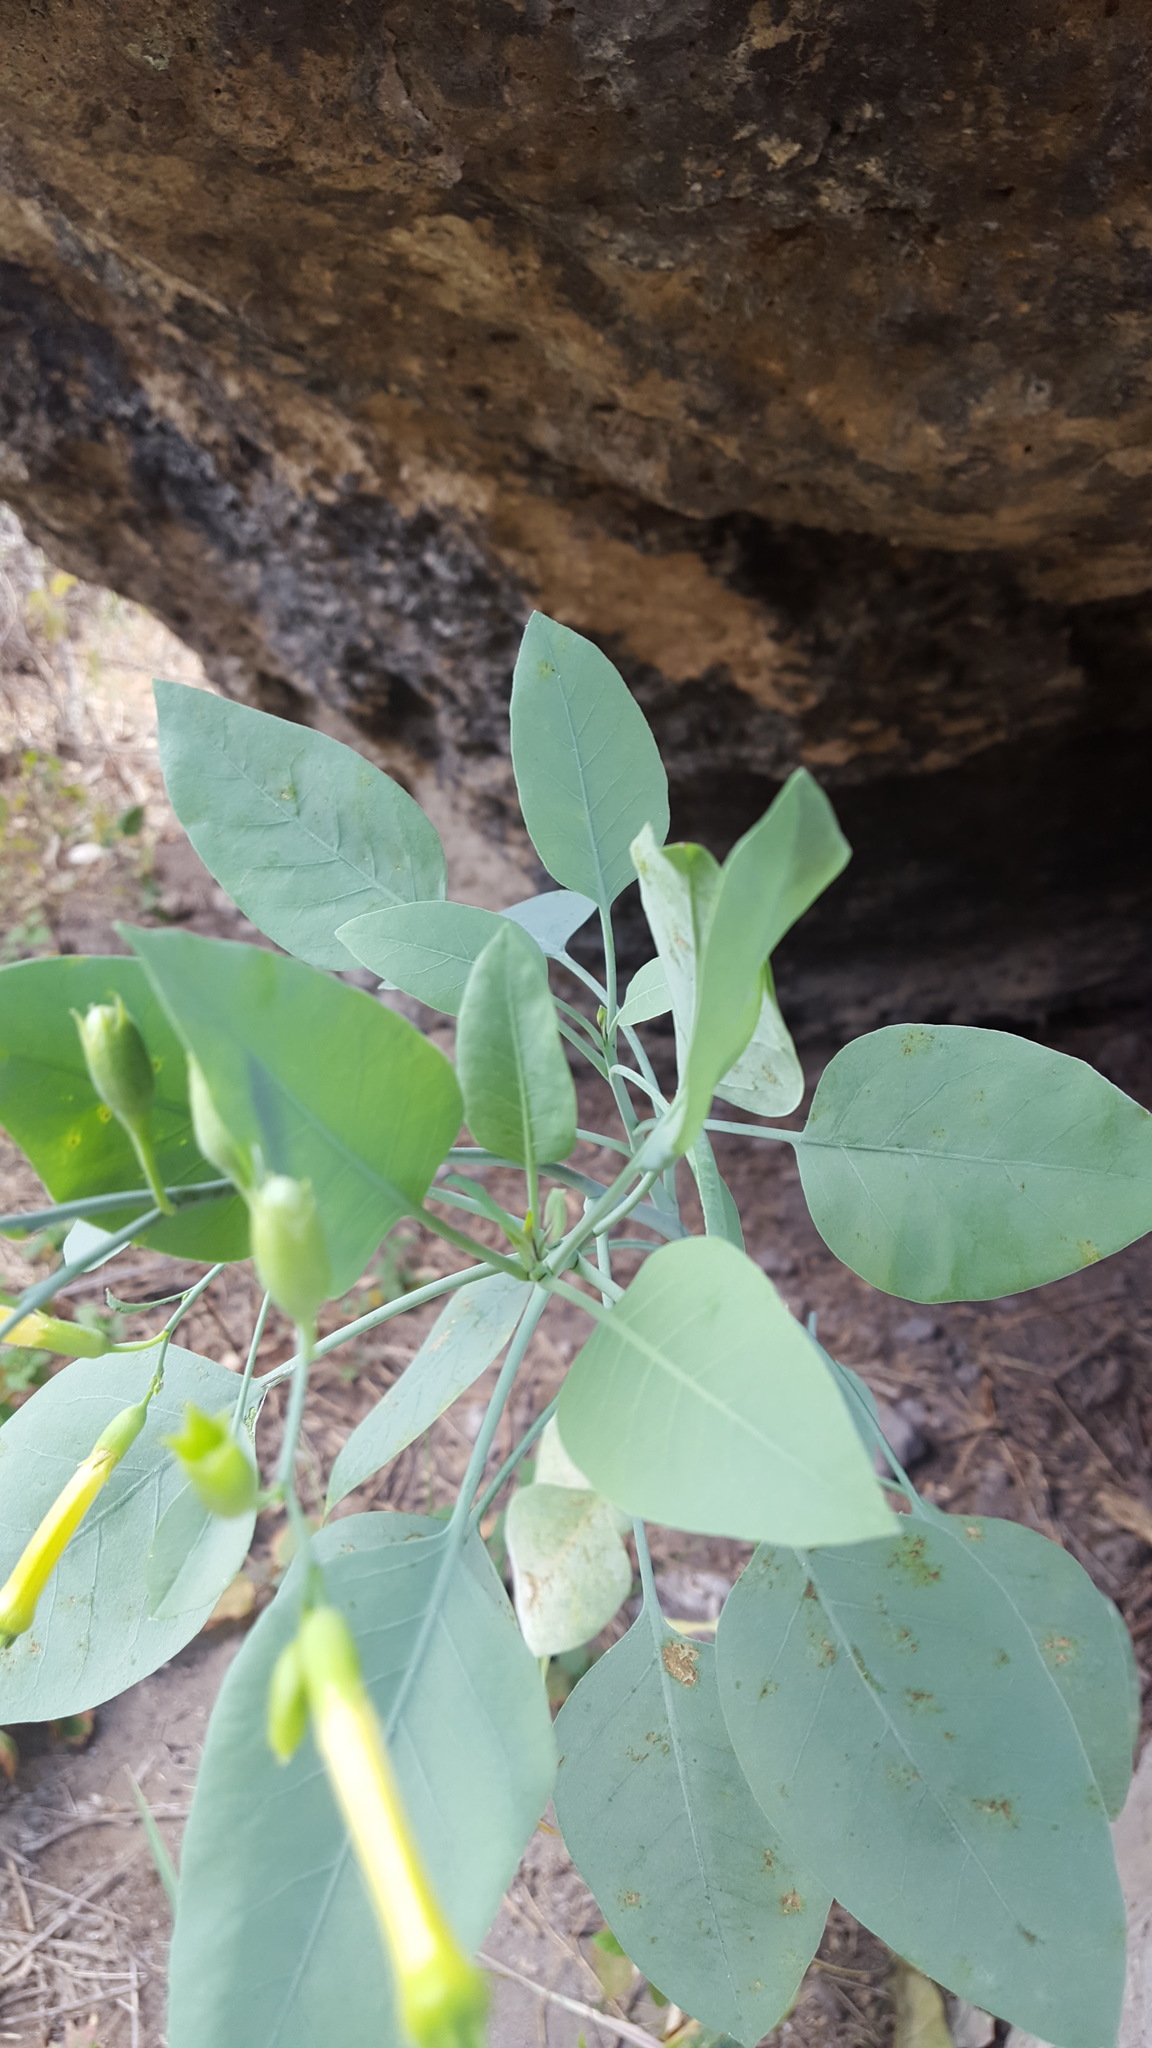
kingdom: Plantae
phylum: Tracheophyta
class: Magnoliopsida
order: Solanales
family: Solanaceae
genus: Nicotiana
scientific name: Nicotiana glauca
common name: Tree tobacco
